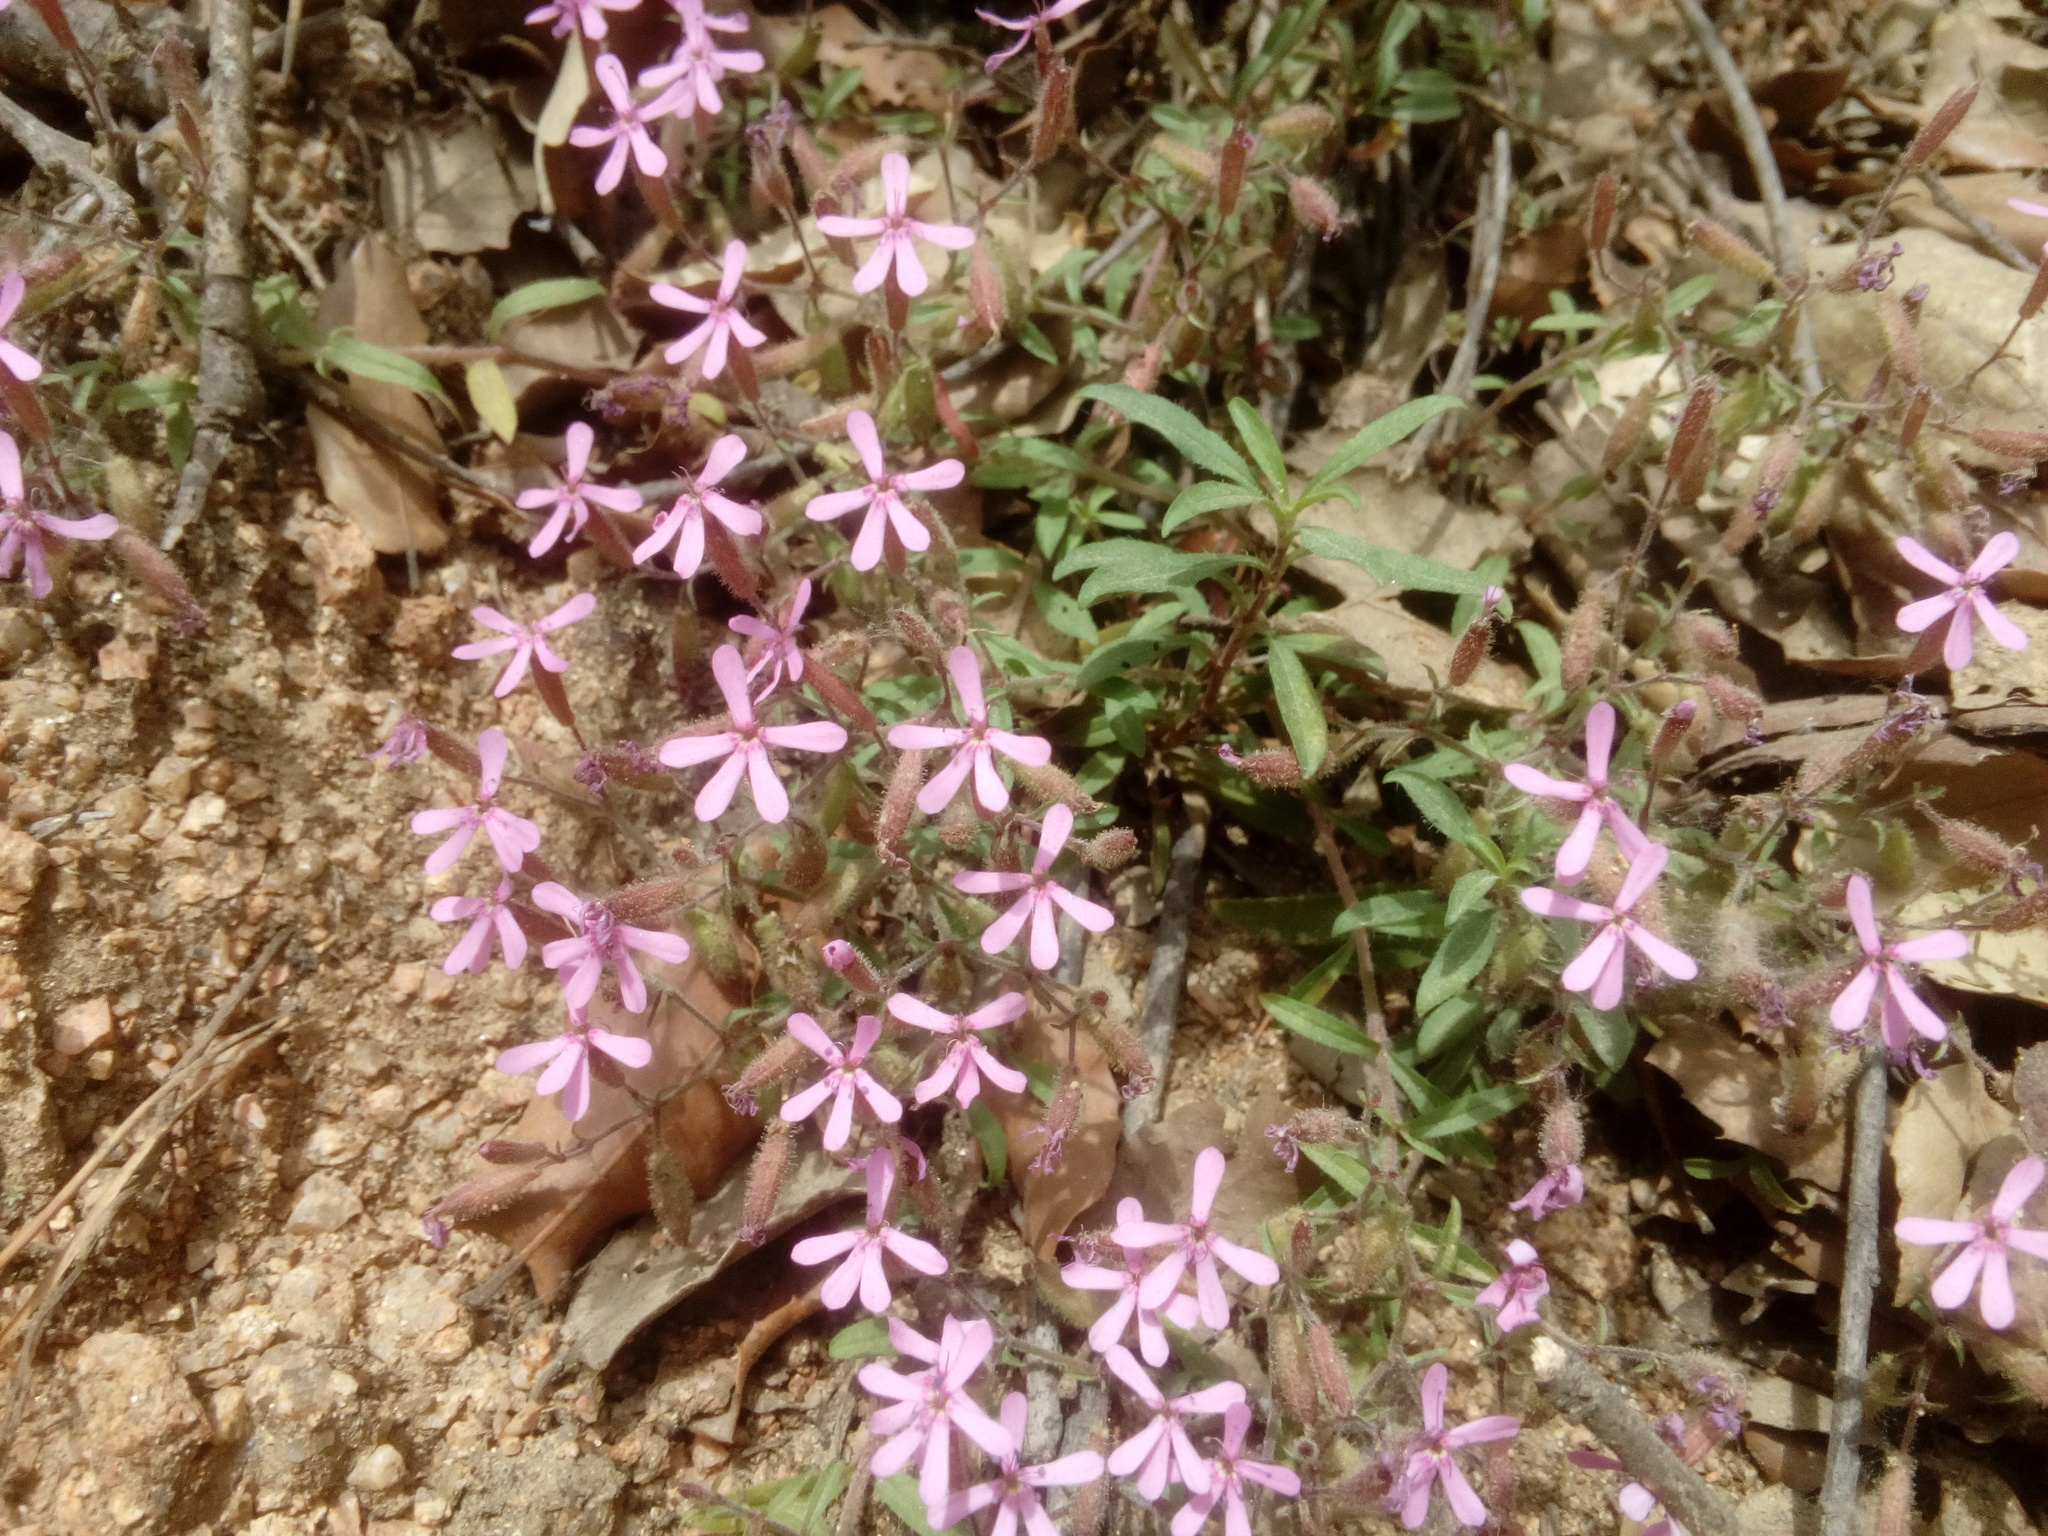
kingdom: Plantae
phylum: Tracheophyta
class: Magnoliopsida
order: Caryophyllales
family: Caryophyllaceae
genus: Saponaria
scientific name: Saponaria ocymoides
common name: Rock soapwort
